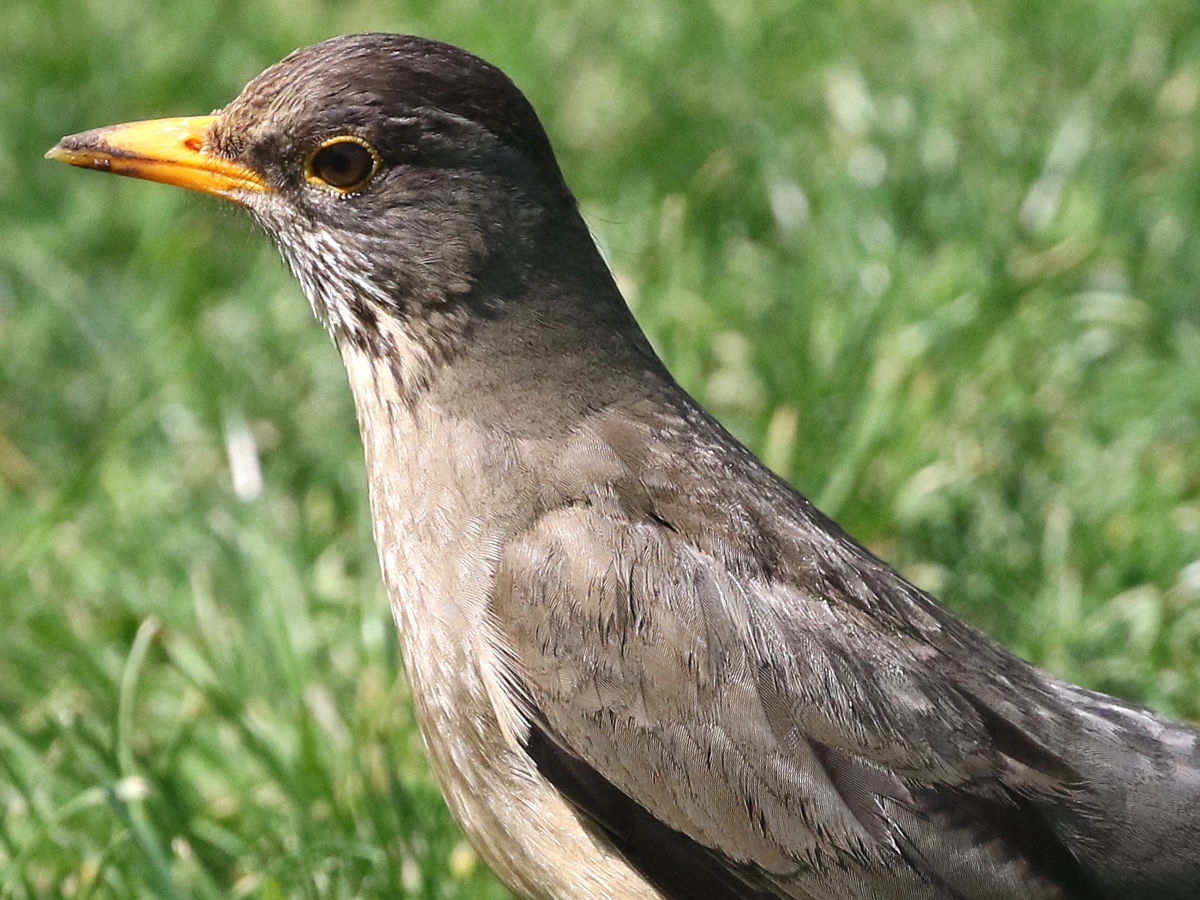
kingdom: Animalia
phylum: Chordata
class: Aves
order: Passeriformes
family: Turdidae
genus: Turdus
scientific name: Turdus falcklandii
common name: Austral thrush
